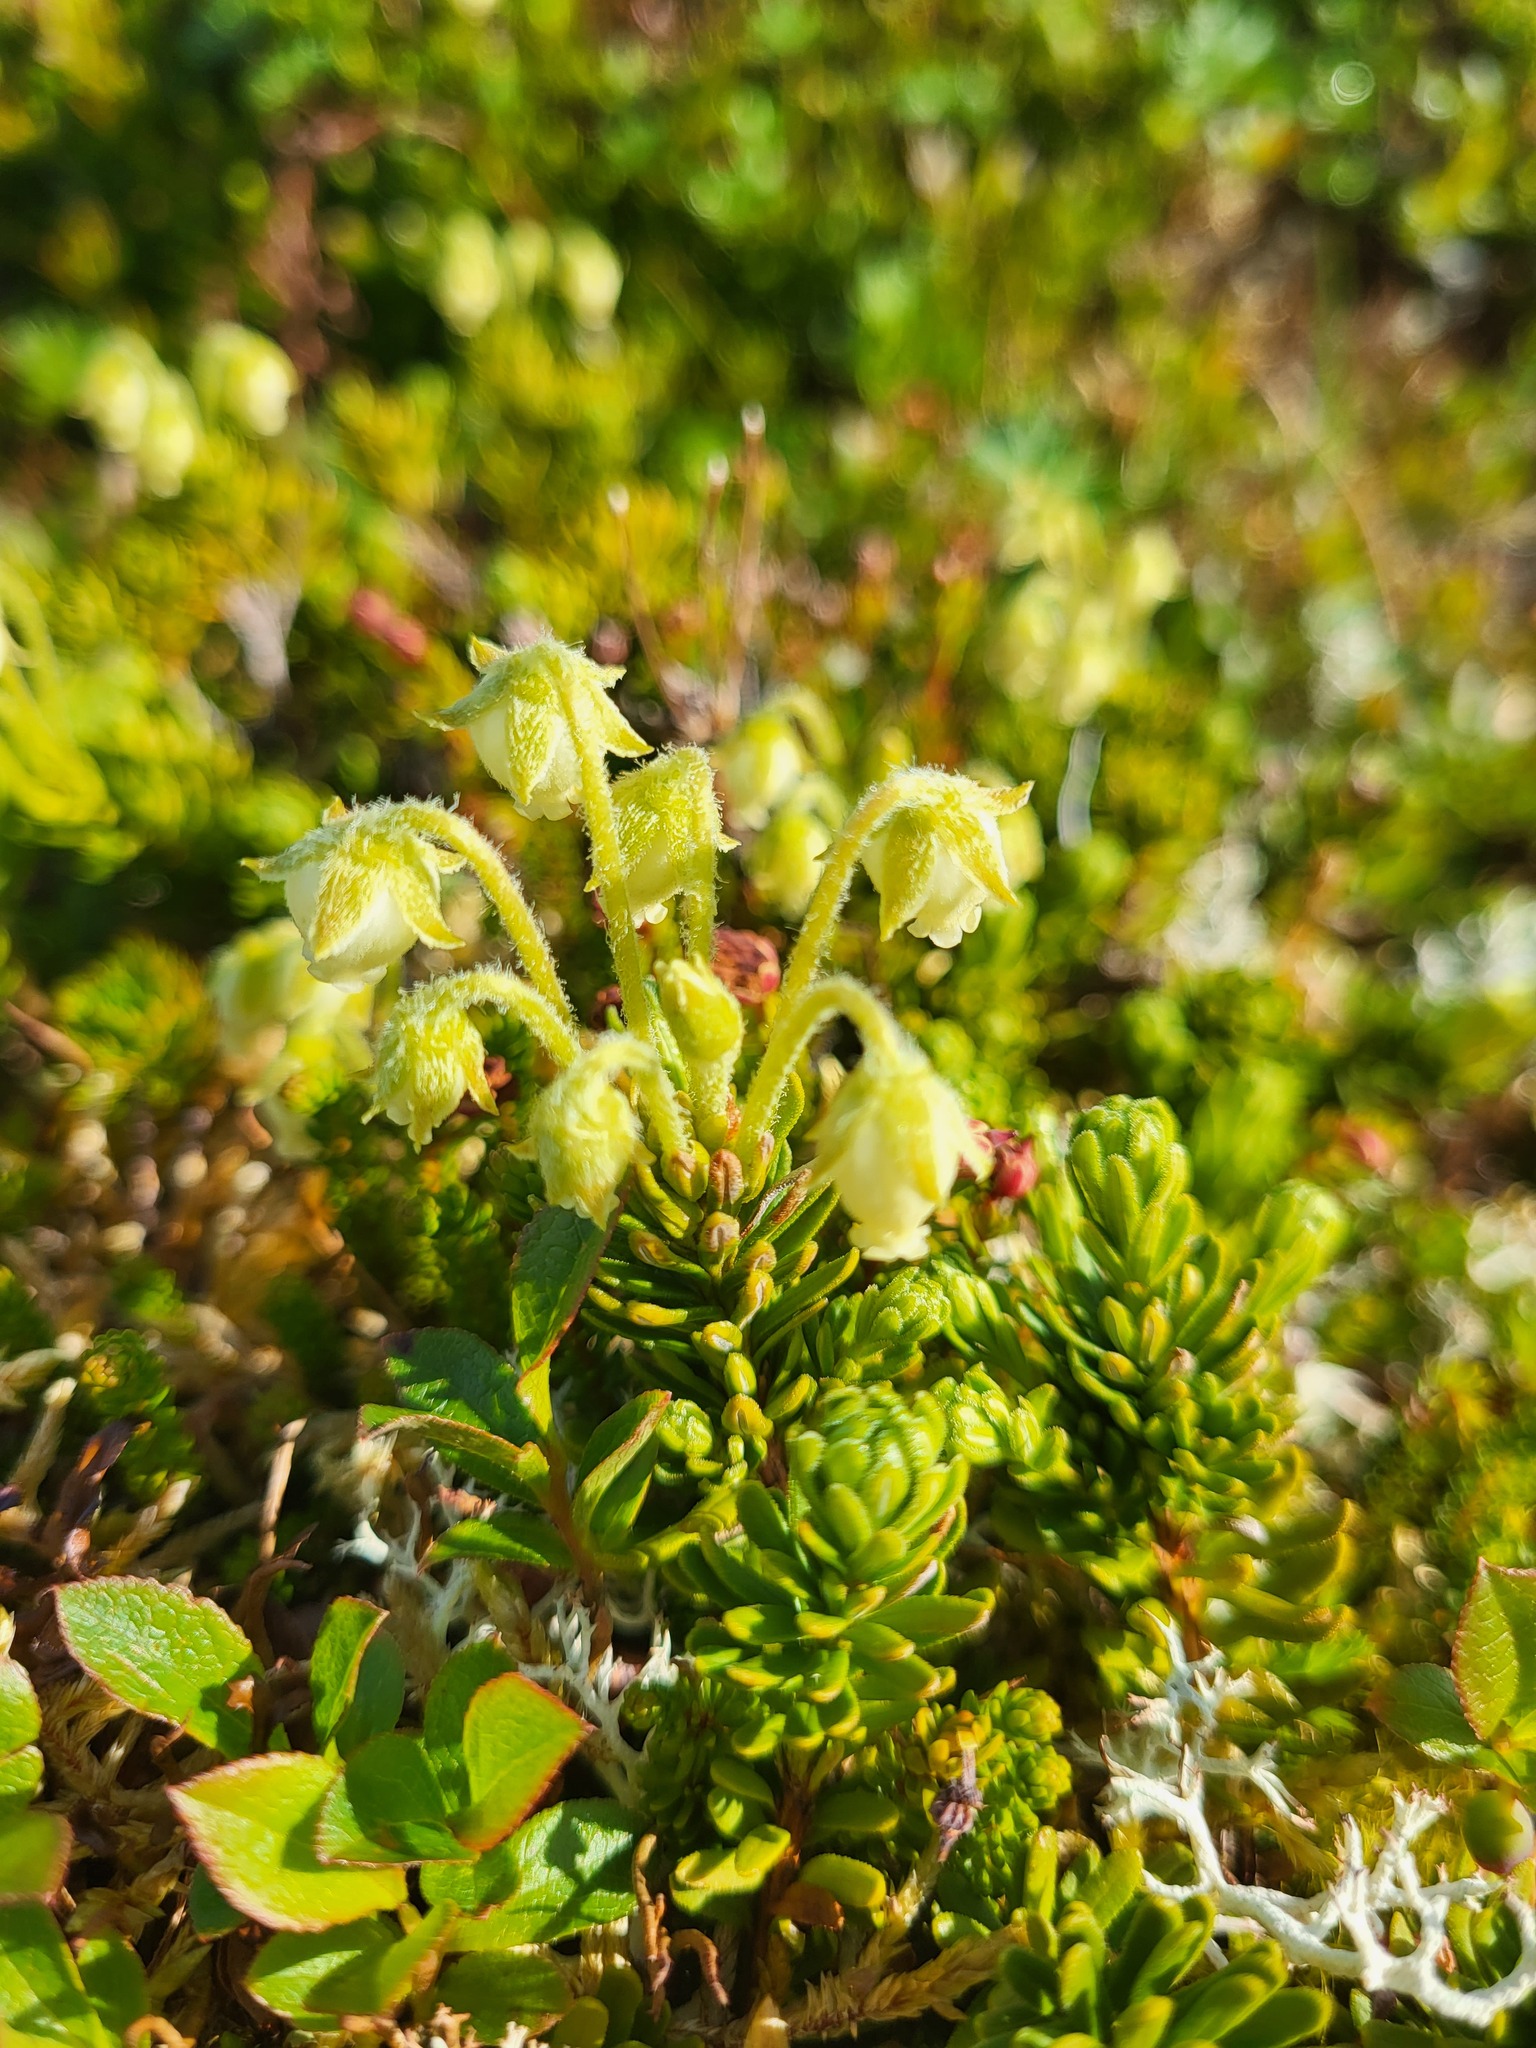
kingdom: Plantae
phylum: Tracheophyta
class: Magnoliopsida
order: Ericales
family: Ericaceae
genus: Phyllodoce
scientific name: Phyllodoce glanduliflora
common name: Cream mountain heather
